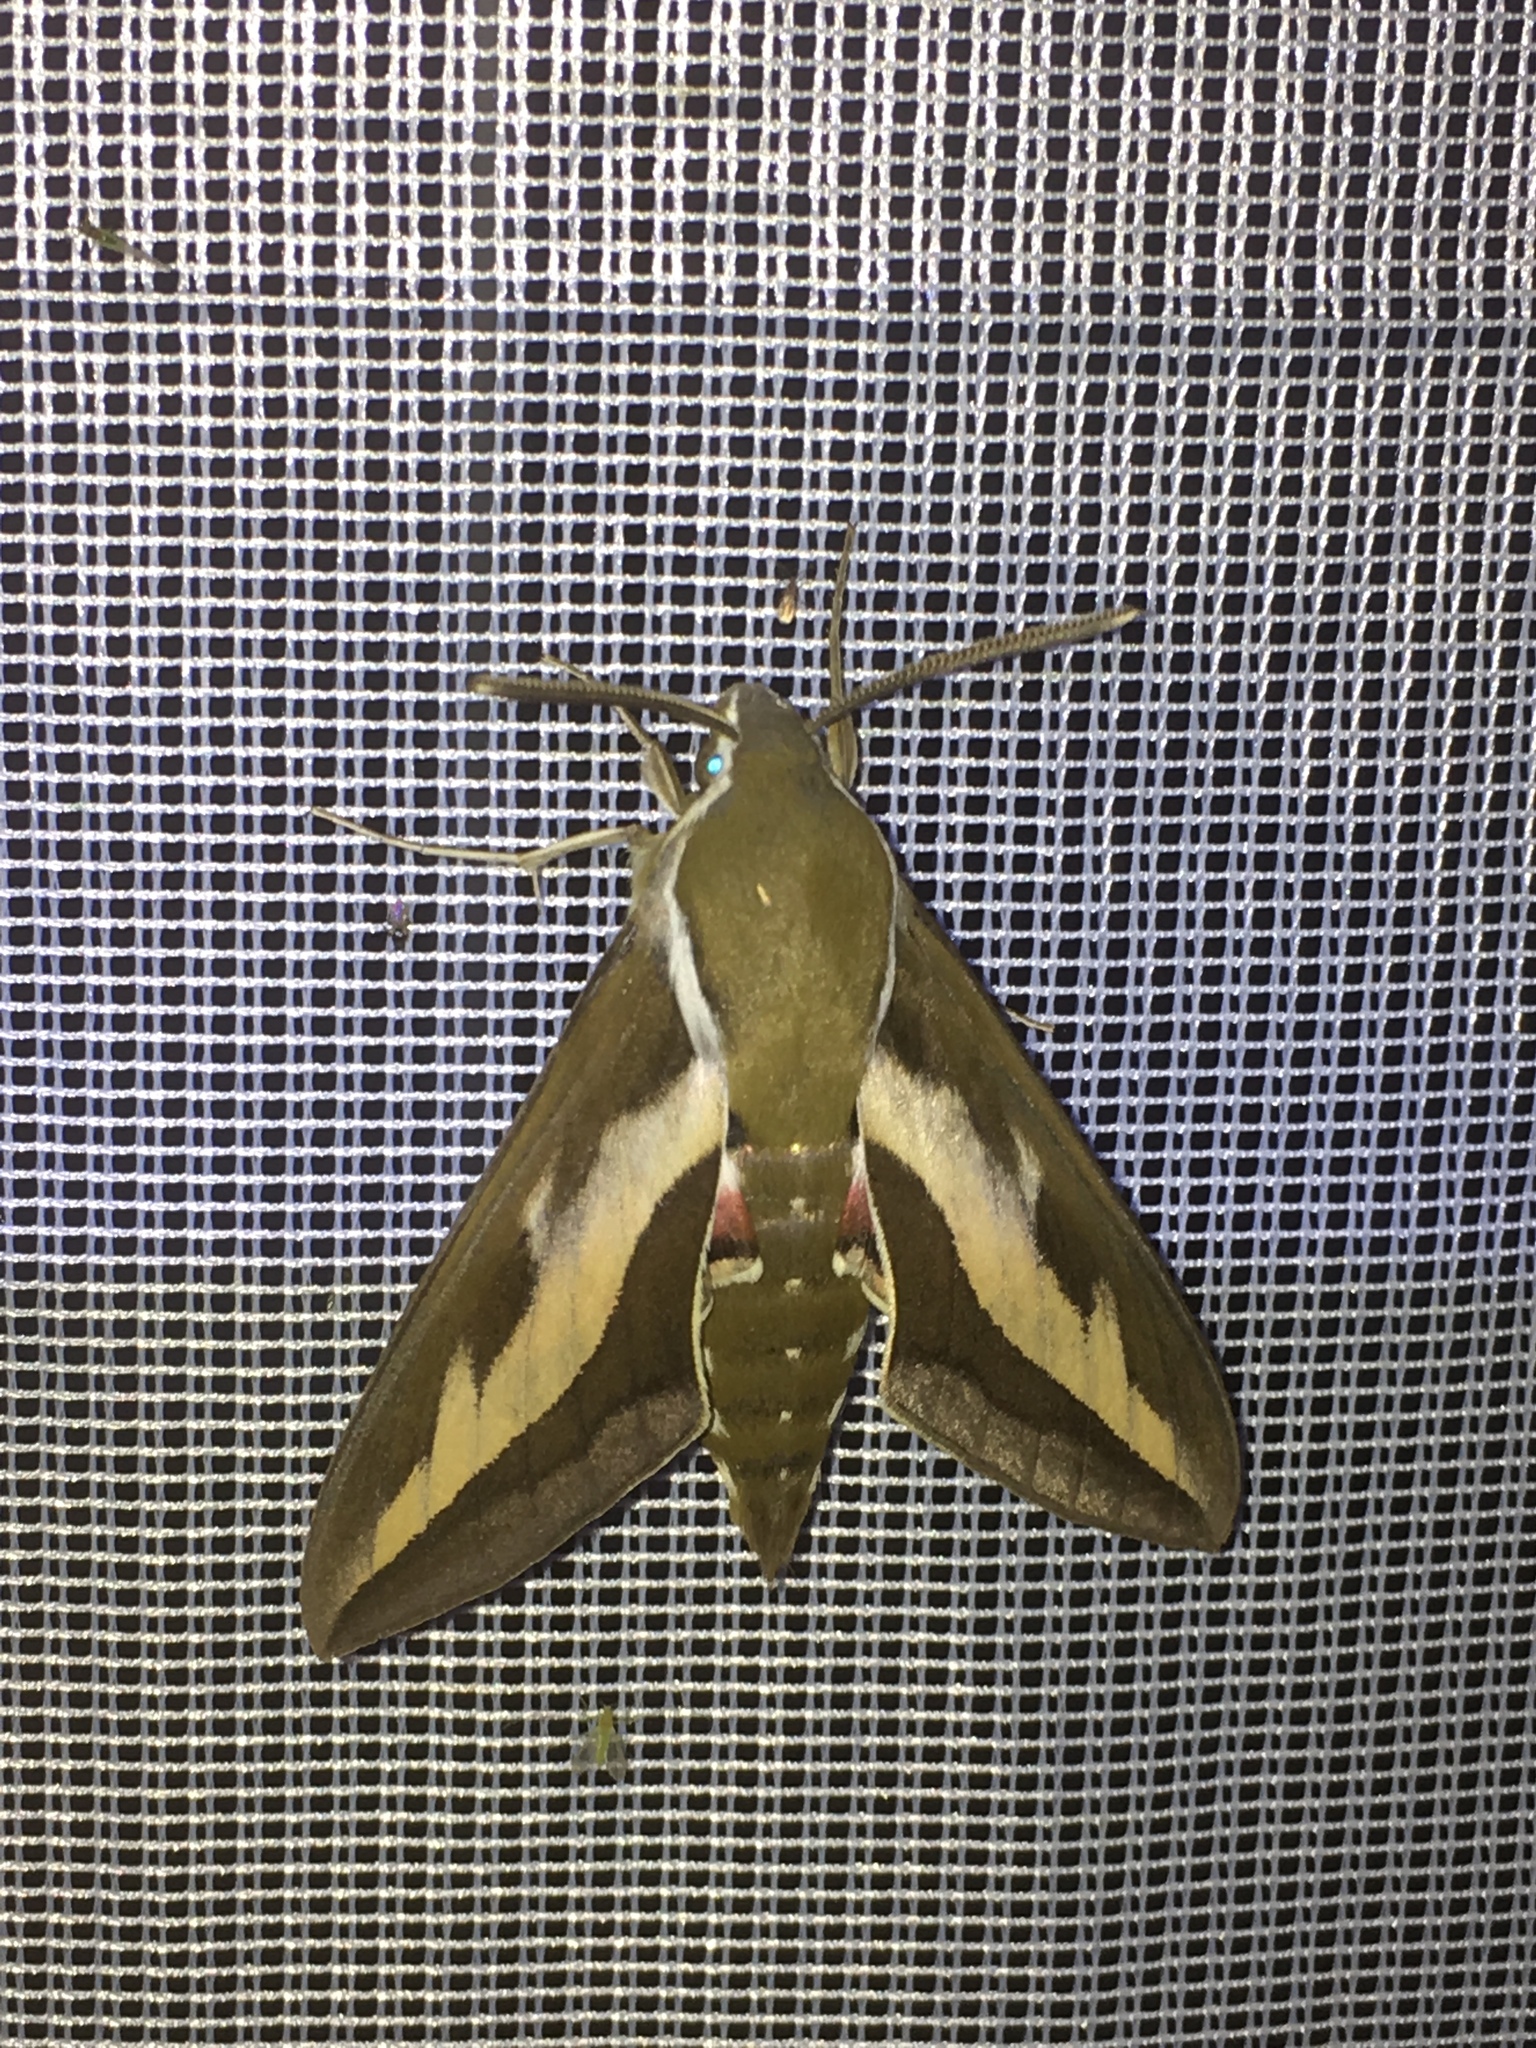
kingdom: Animalia
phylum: Arthropoda
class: Insecta
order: Lepidoptera
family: Sphingidae
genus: Hyles
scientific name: Hyles gallii
